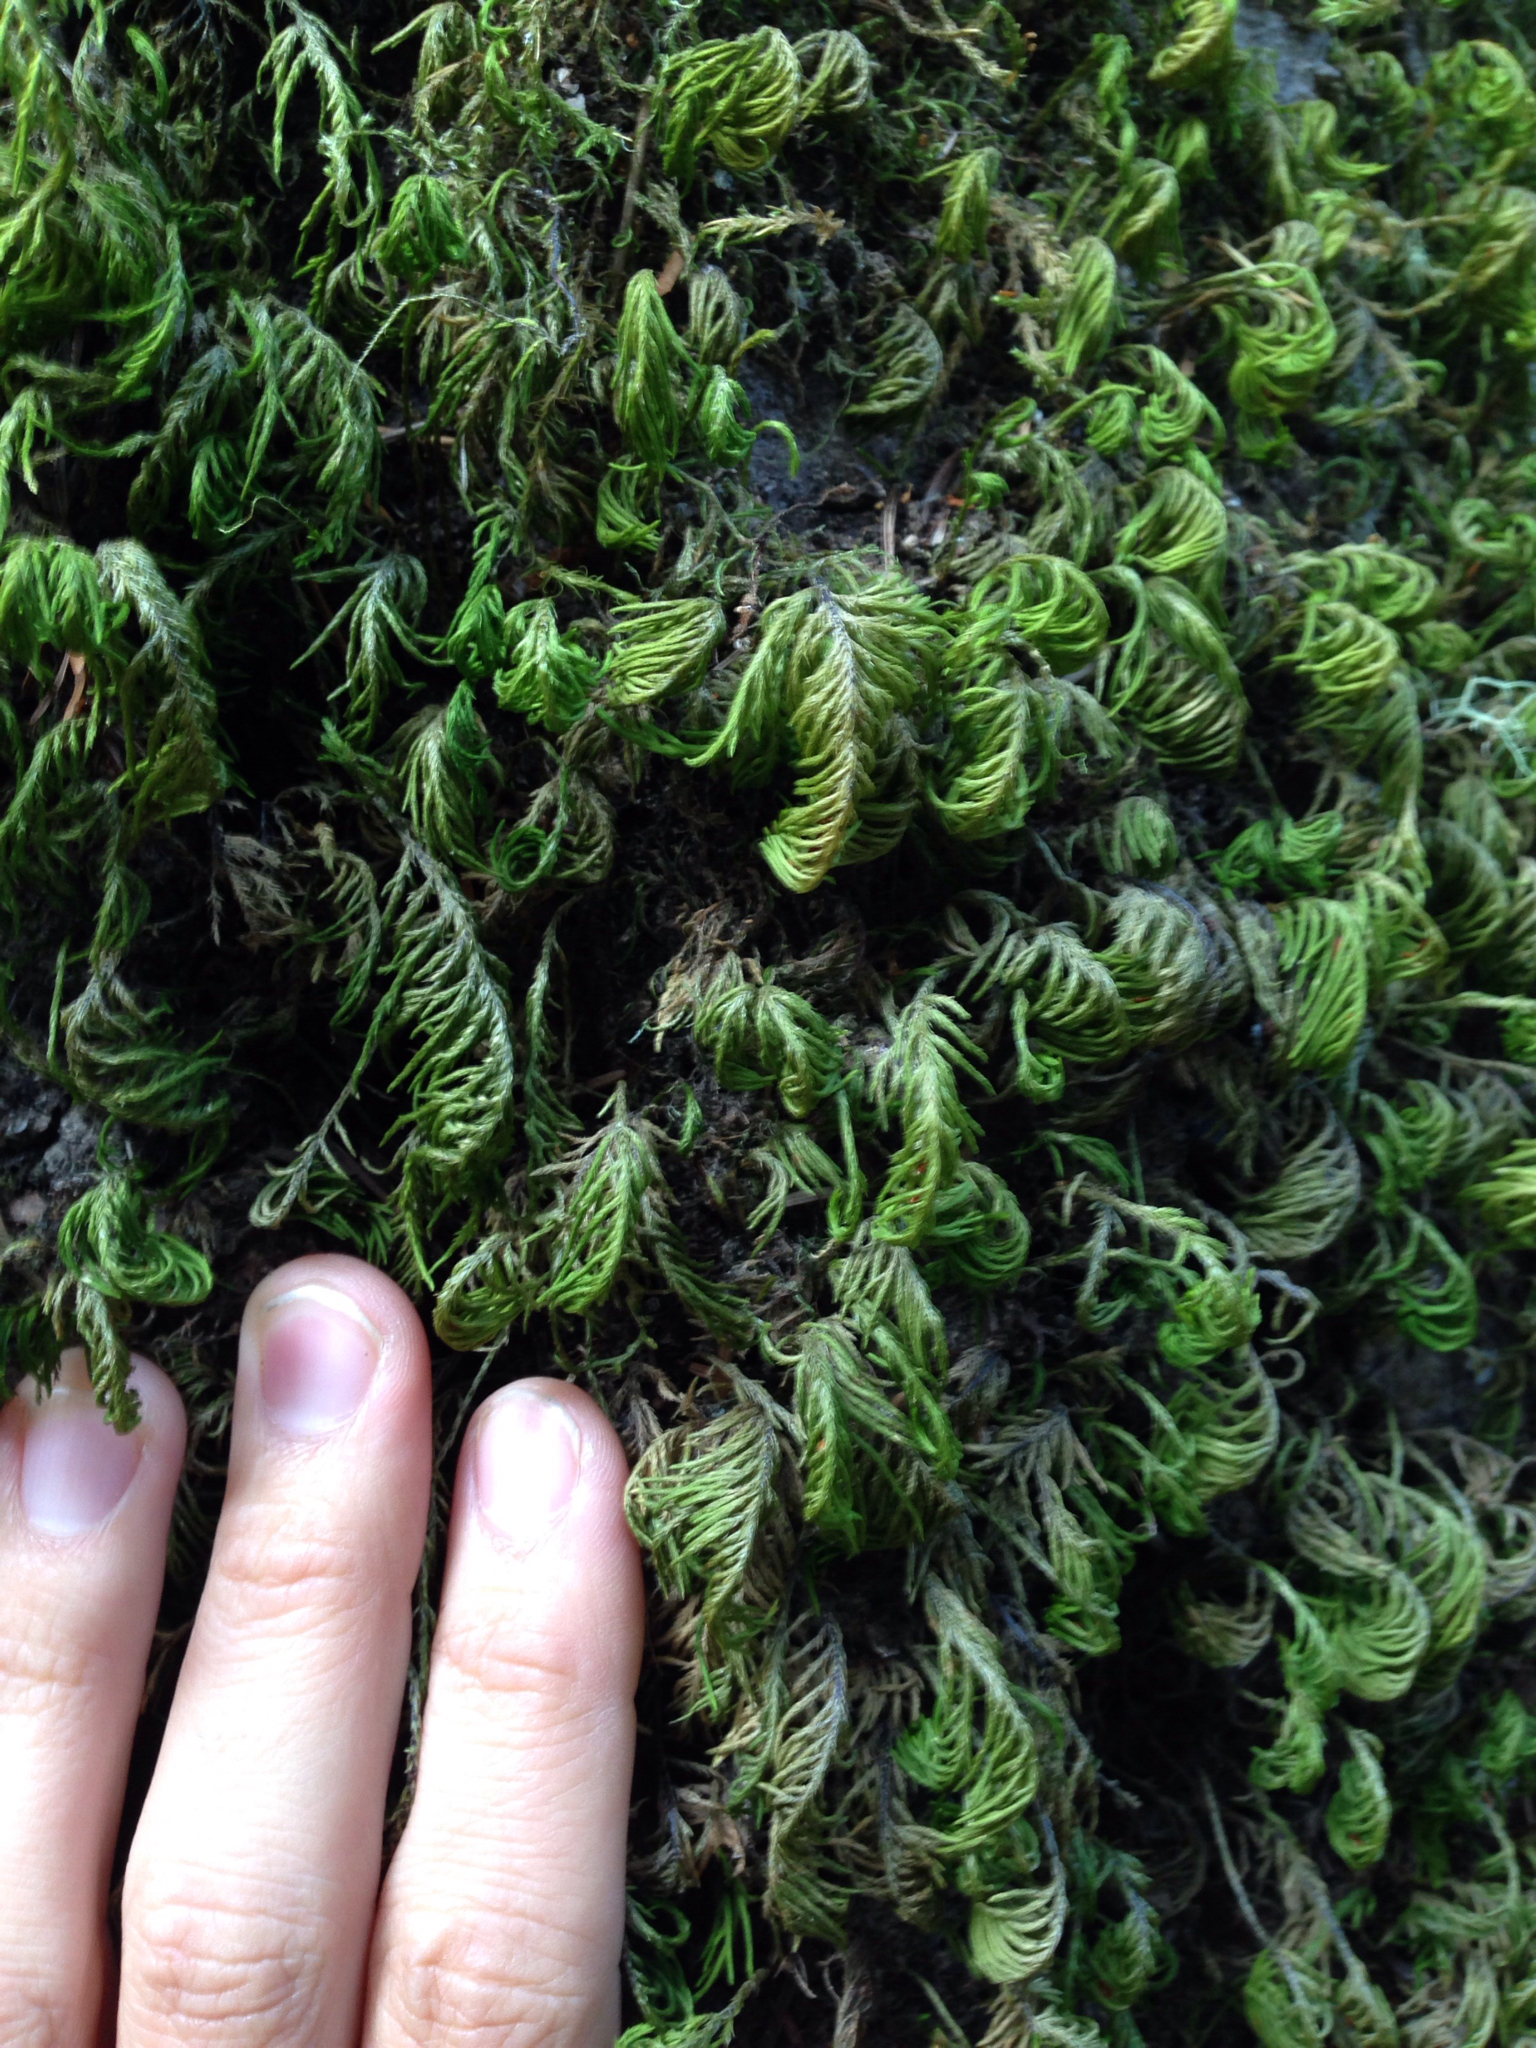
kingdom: Plantae
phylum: Bryophyta
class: Bryopsida
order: Hypnales
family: Cryphaeaceae
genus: Dendroalsia
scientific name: Dendroalsia abietina
